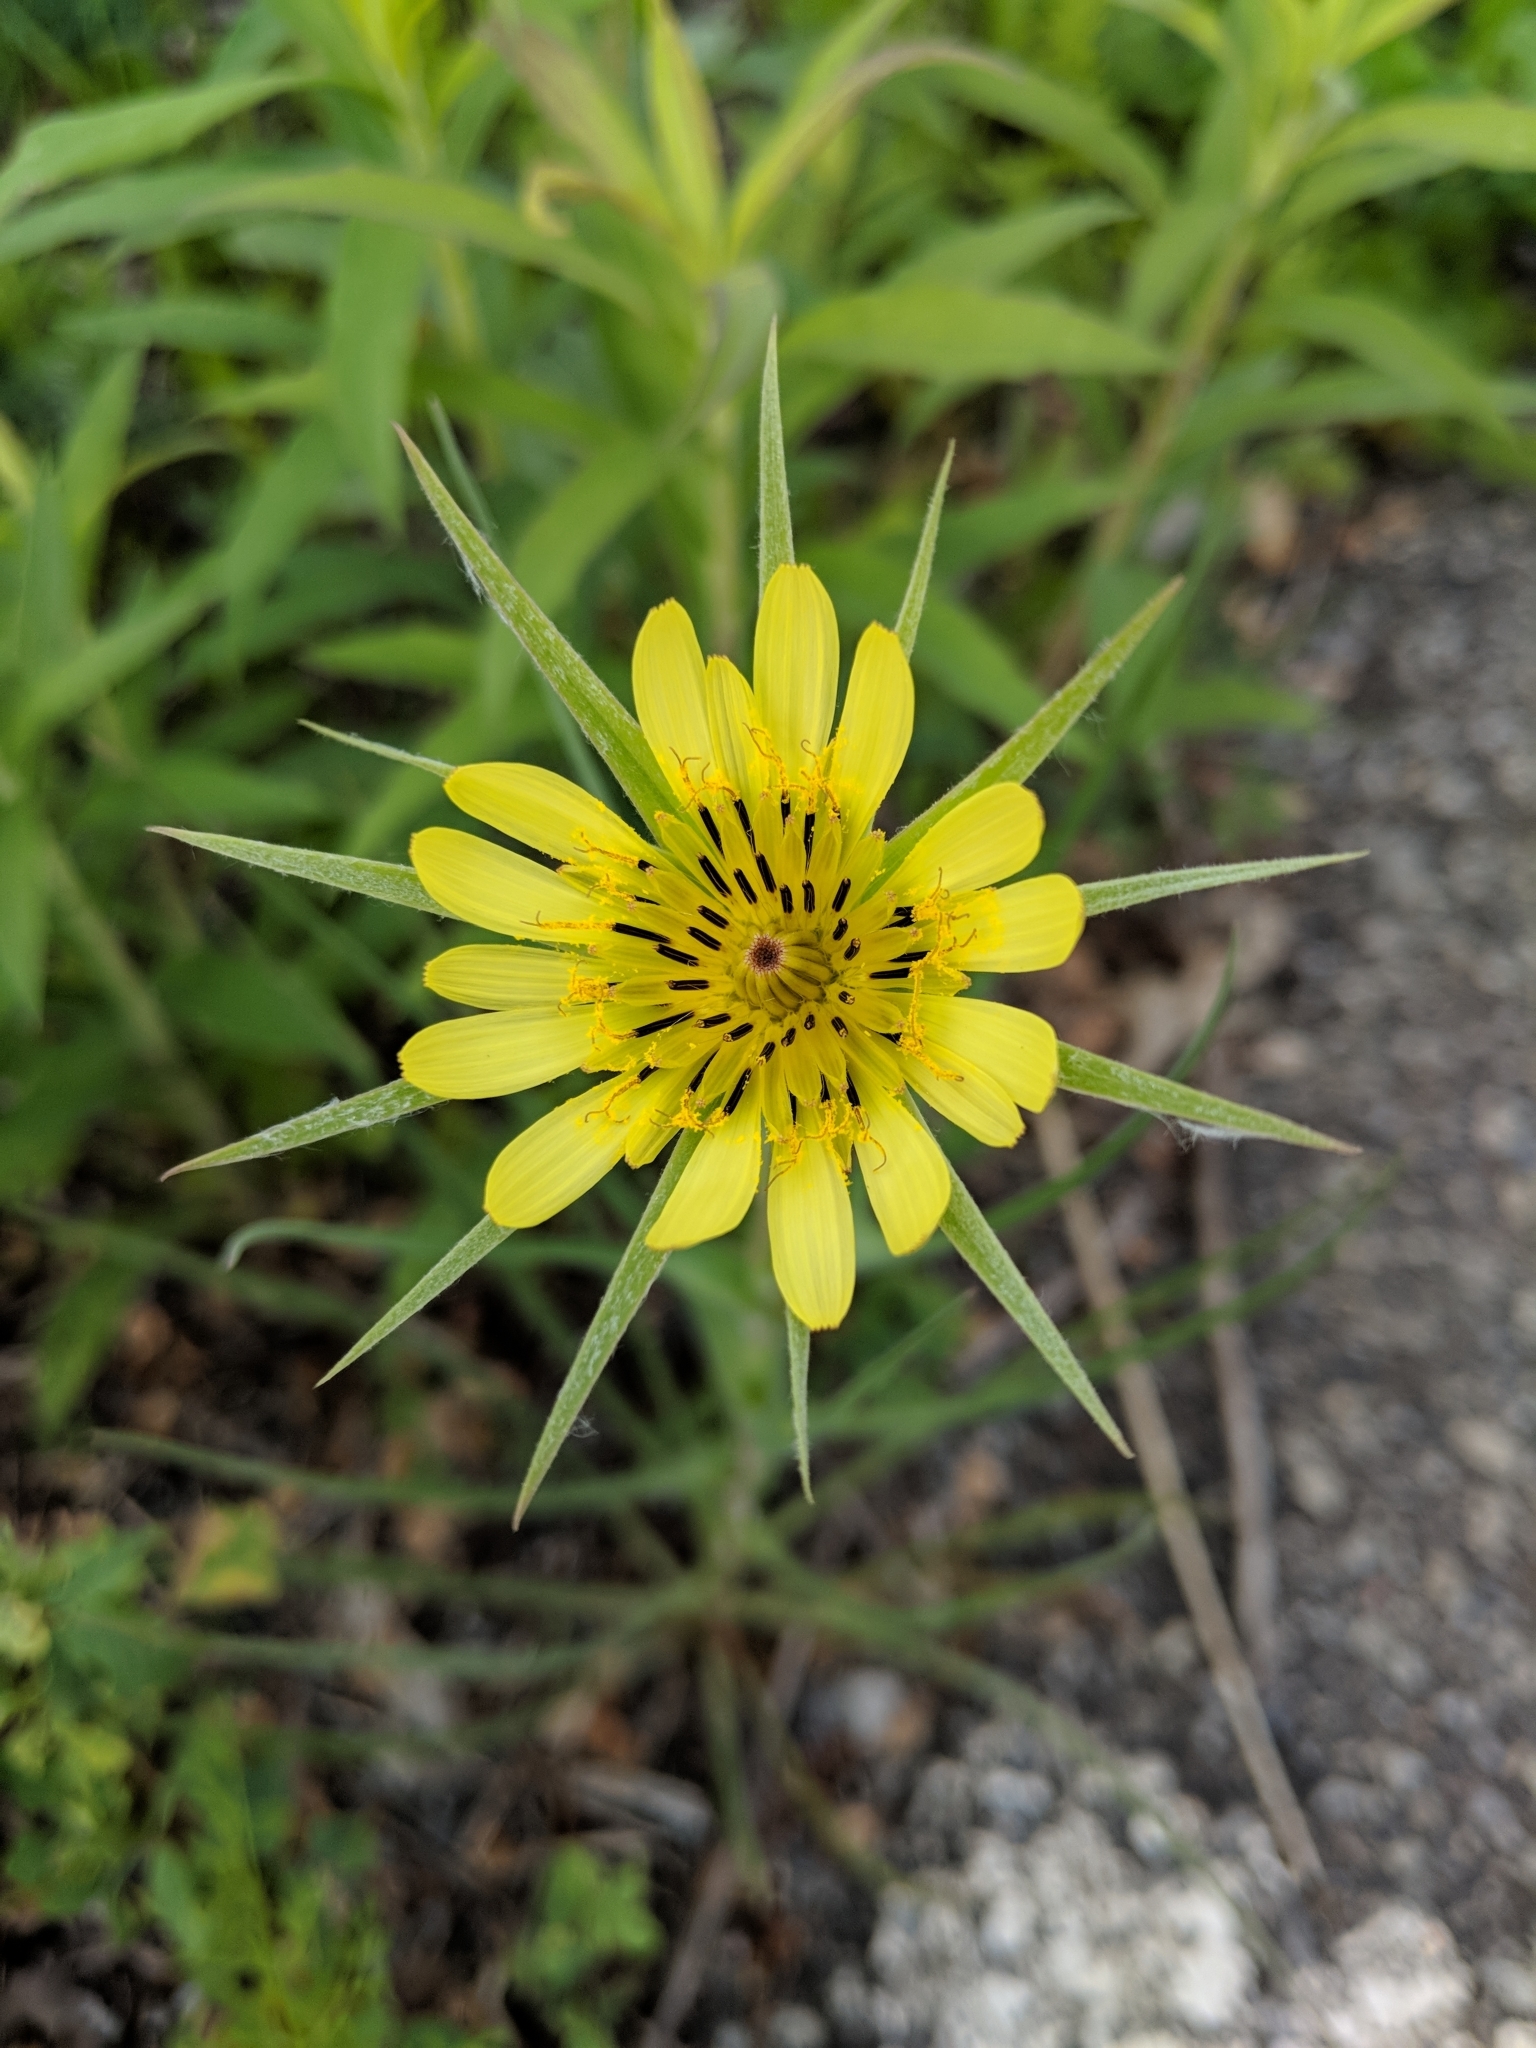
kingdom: Plantae
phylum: Tracheophyta
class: Magnoliopsida
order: Asterales
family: Asteraceae
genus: Tragopogon
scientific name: Tragopogon dubius
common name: Yellow salsify
